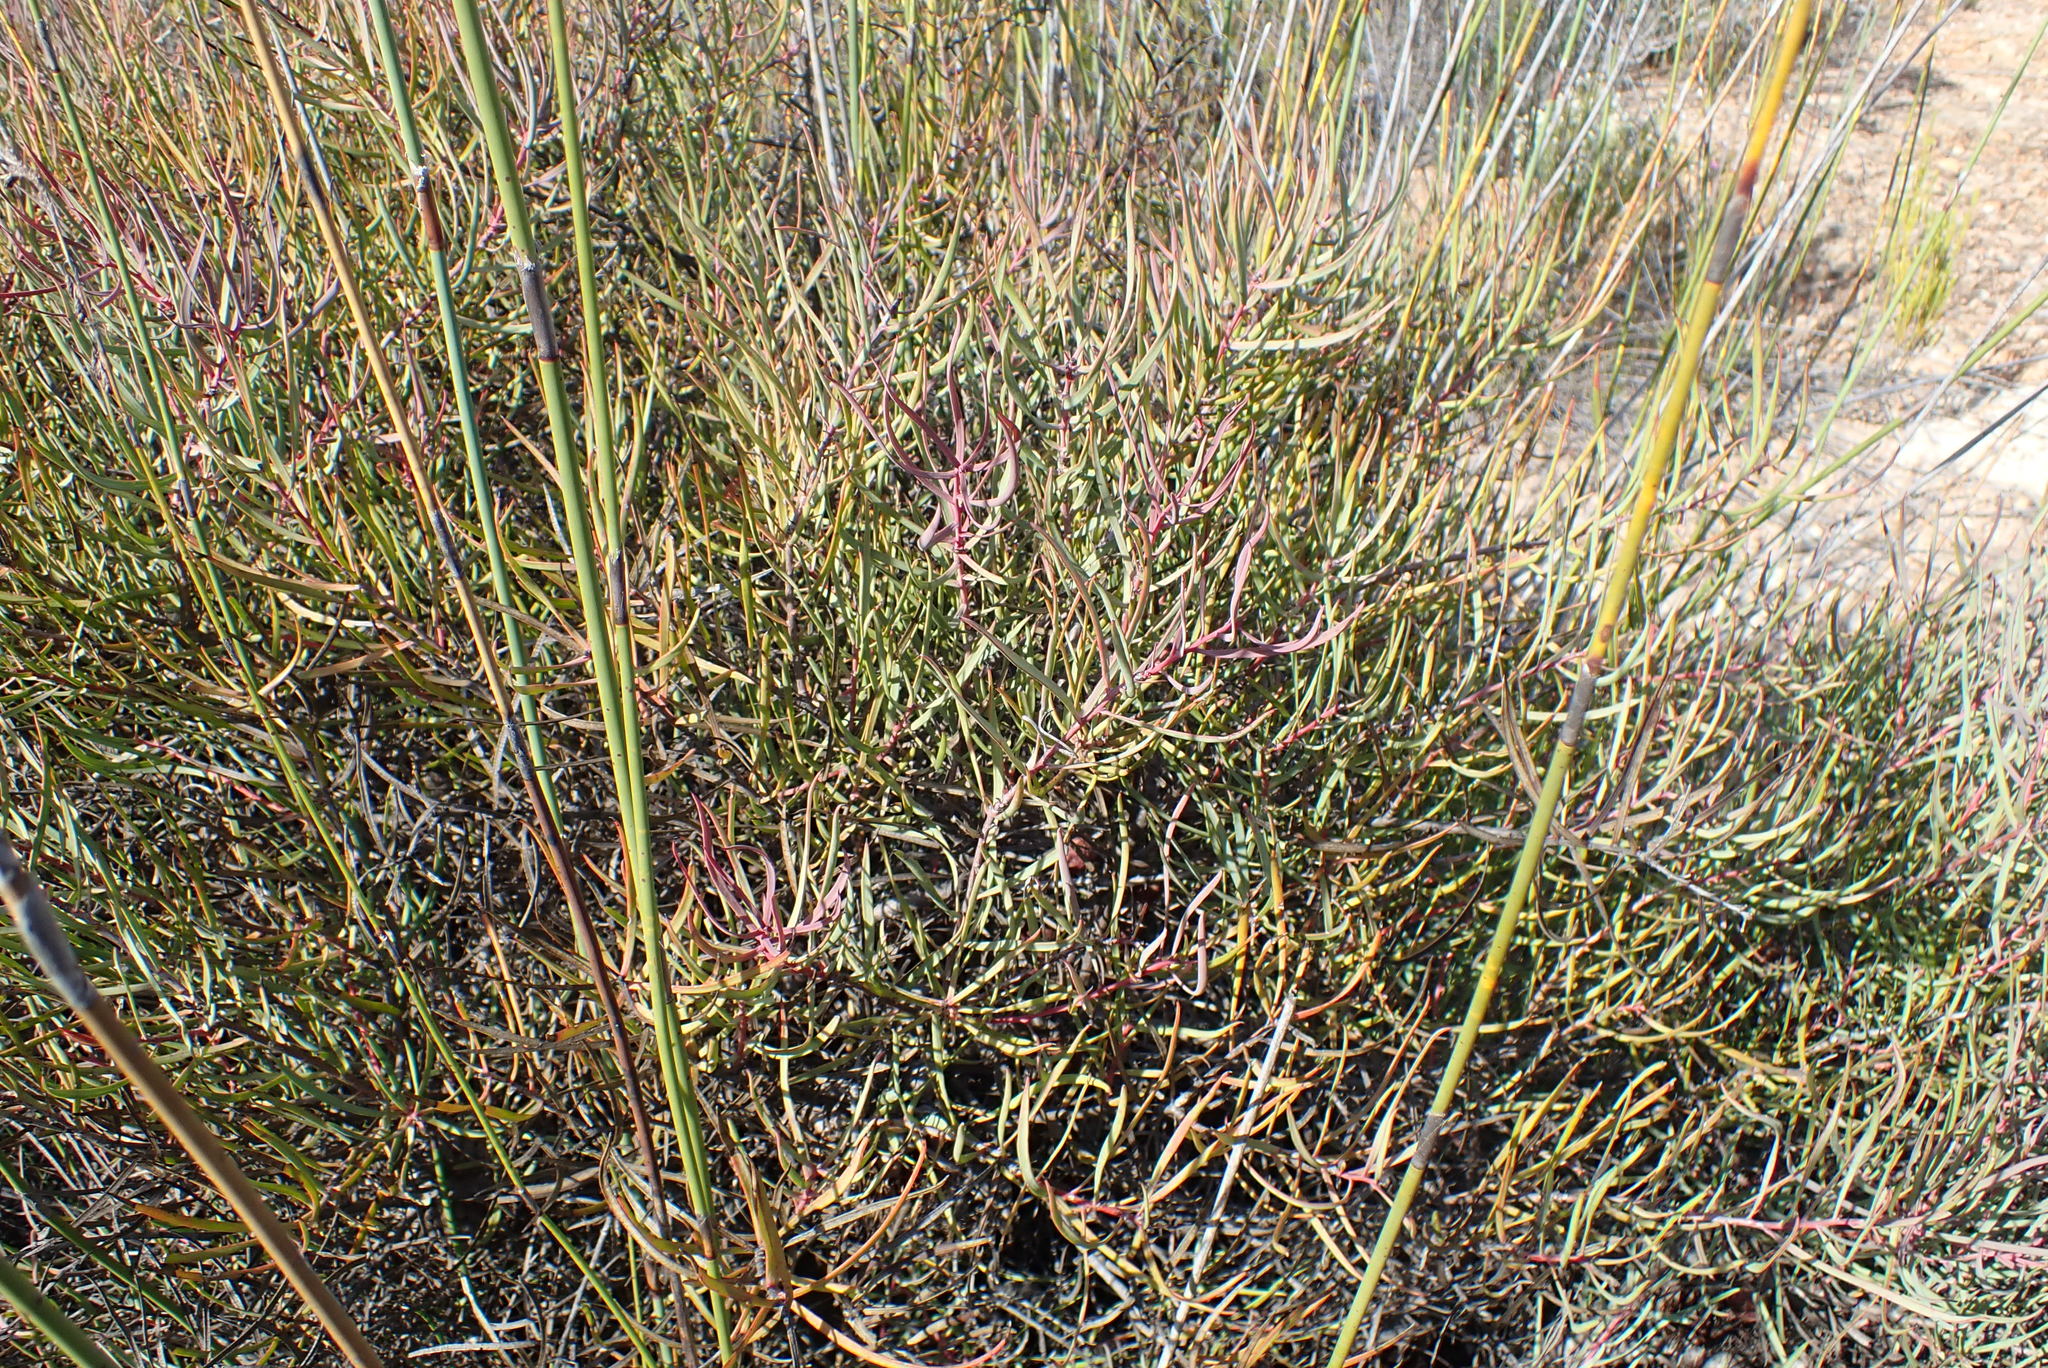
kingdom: Plantae
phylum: Tracheophyta
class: Magnoliopsida
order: Proteales
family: Proteaceae
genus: Protea
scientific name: Protea humiflora
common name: Patent-leaf sugarbush
